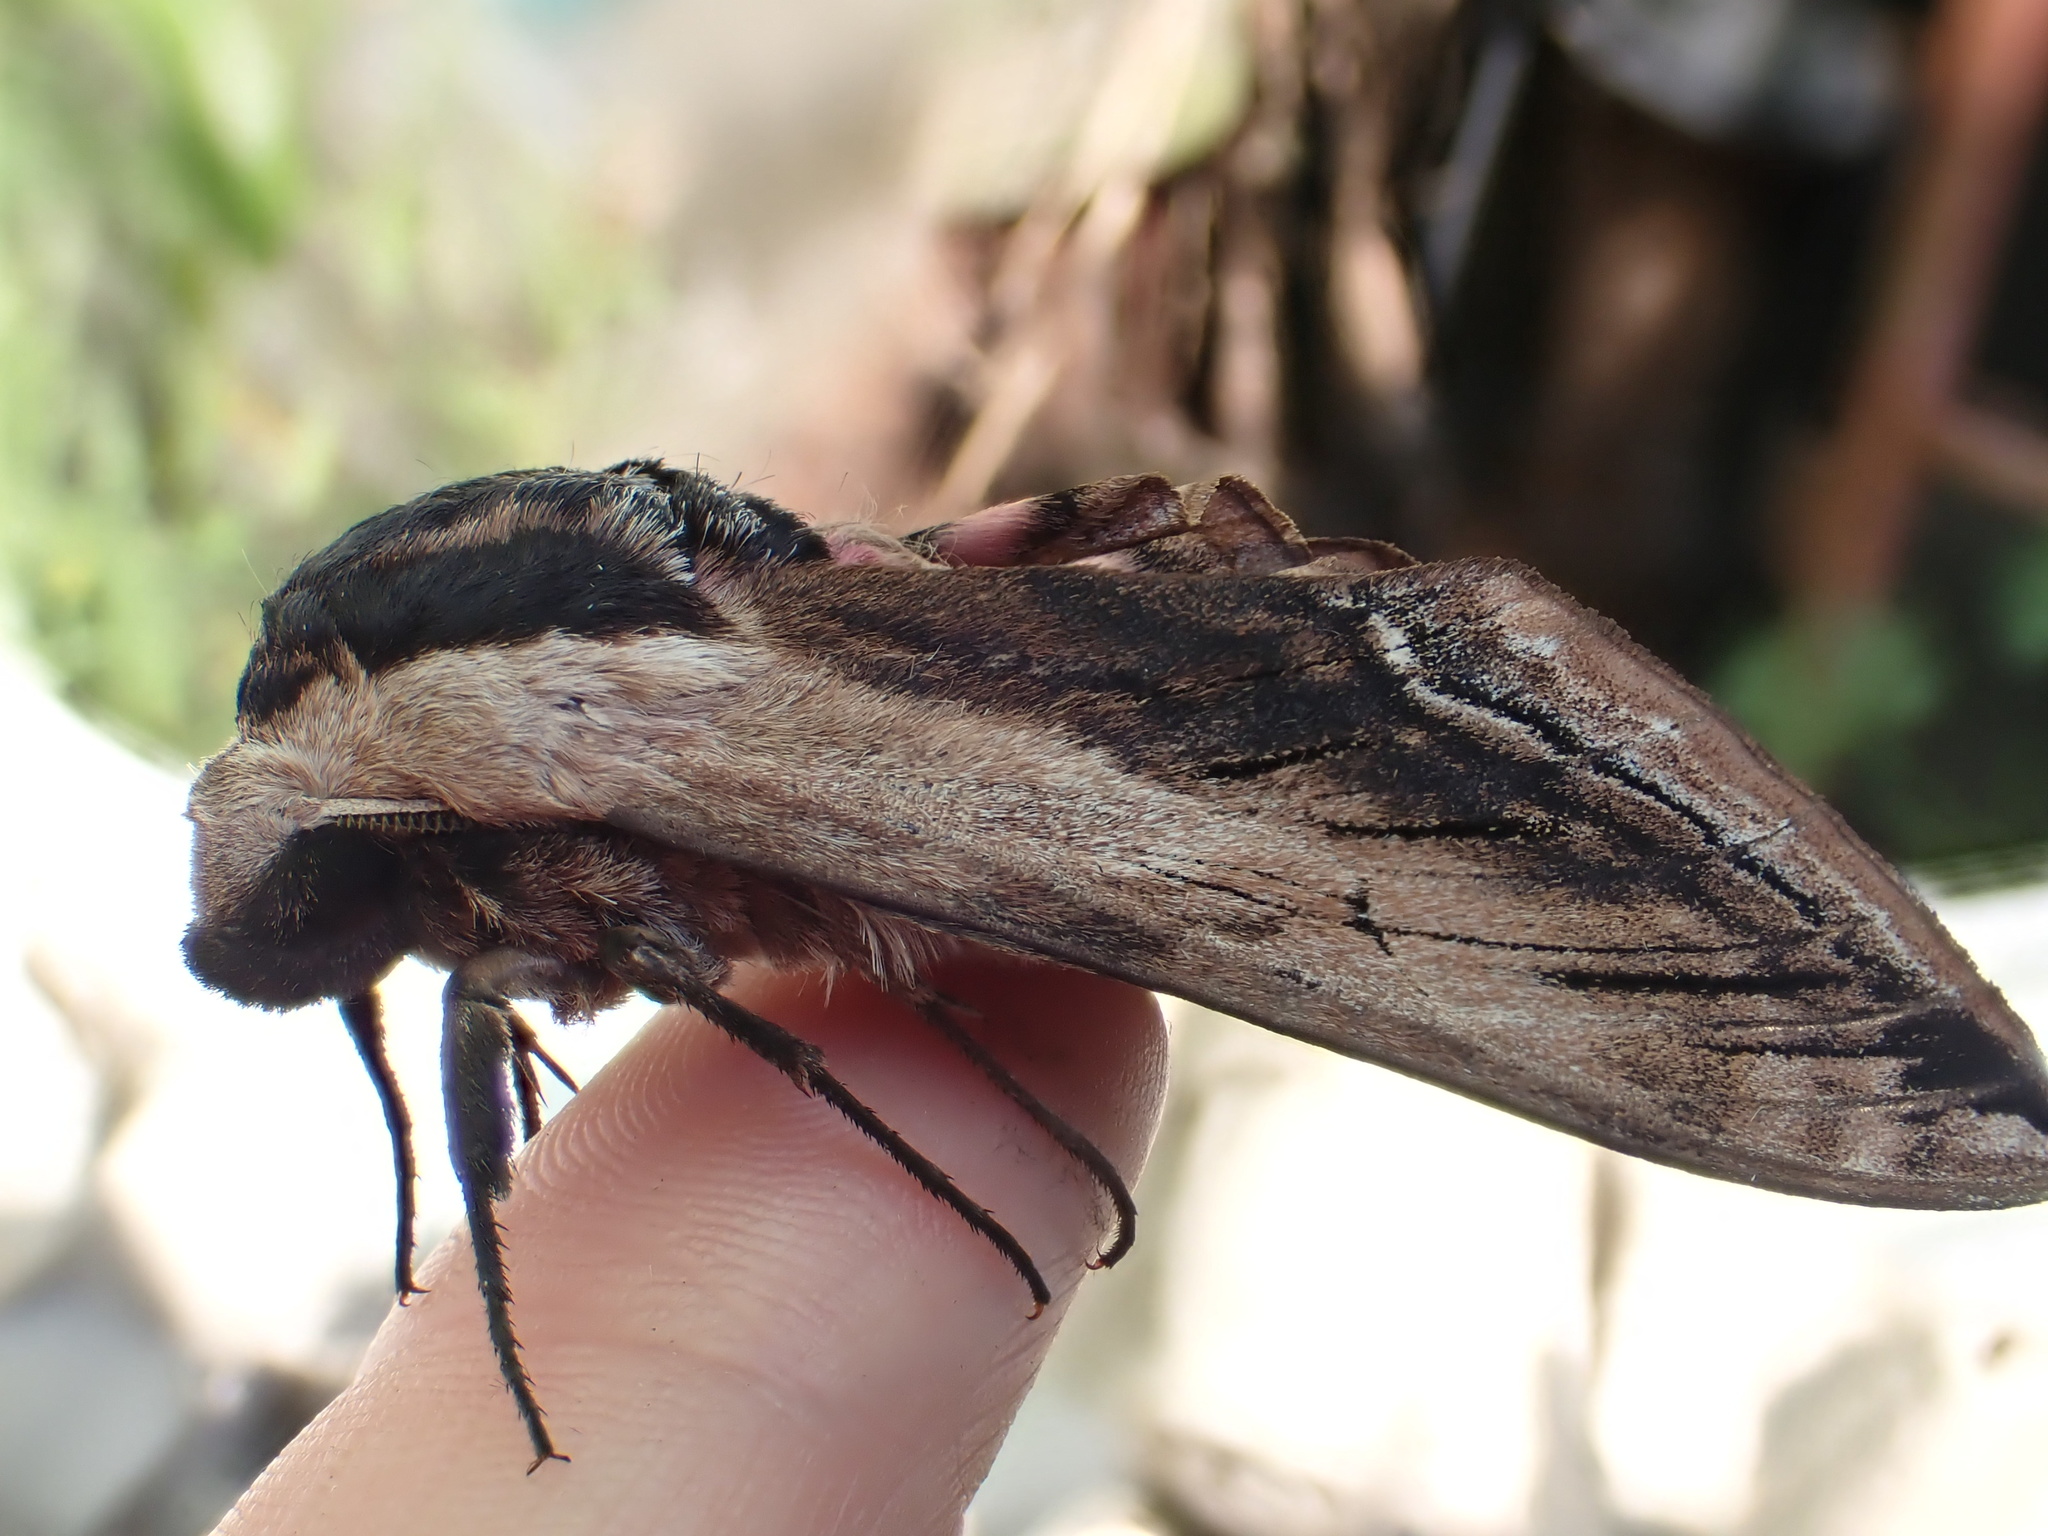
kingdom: Animalia
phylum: Arthropoda
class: Insecta
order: Lepidoptera
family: Sphingidae
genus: Sphinx
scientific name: Sphinx ligustri
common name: Privet hawk-moth
